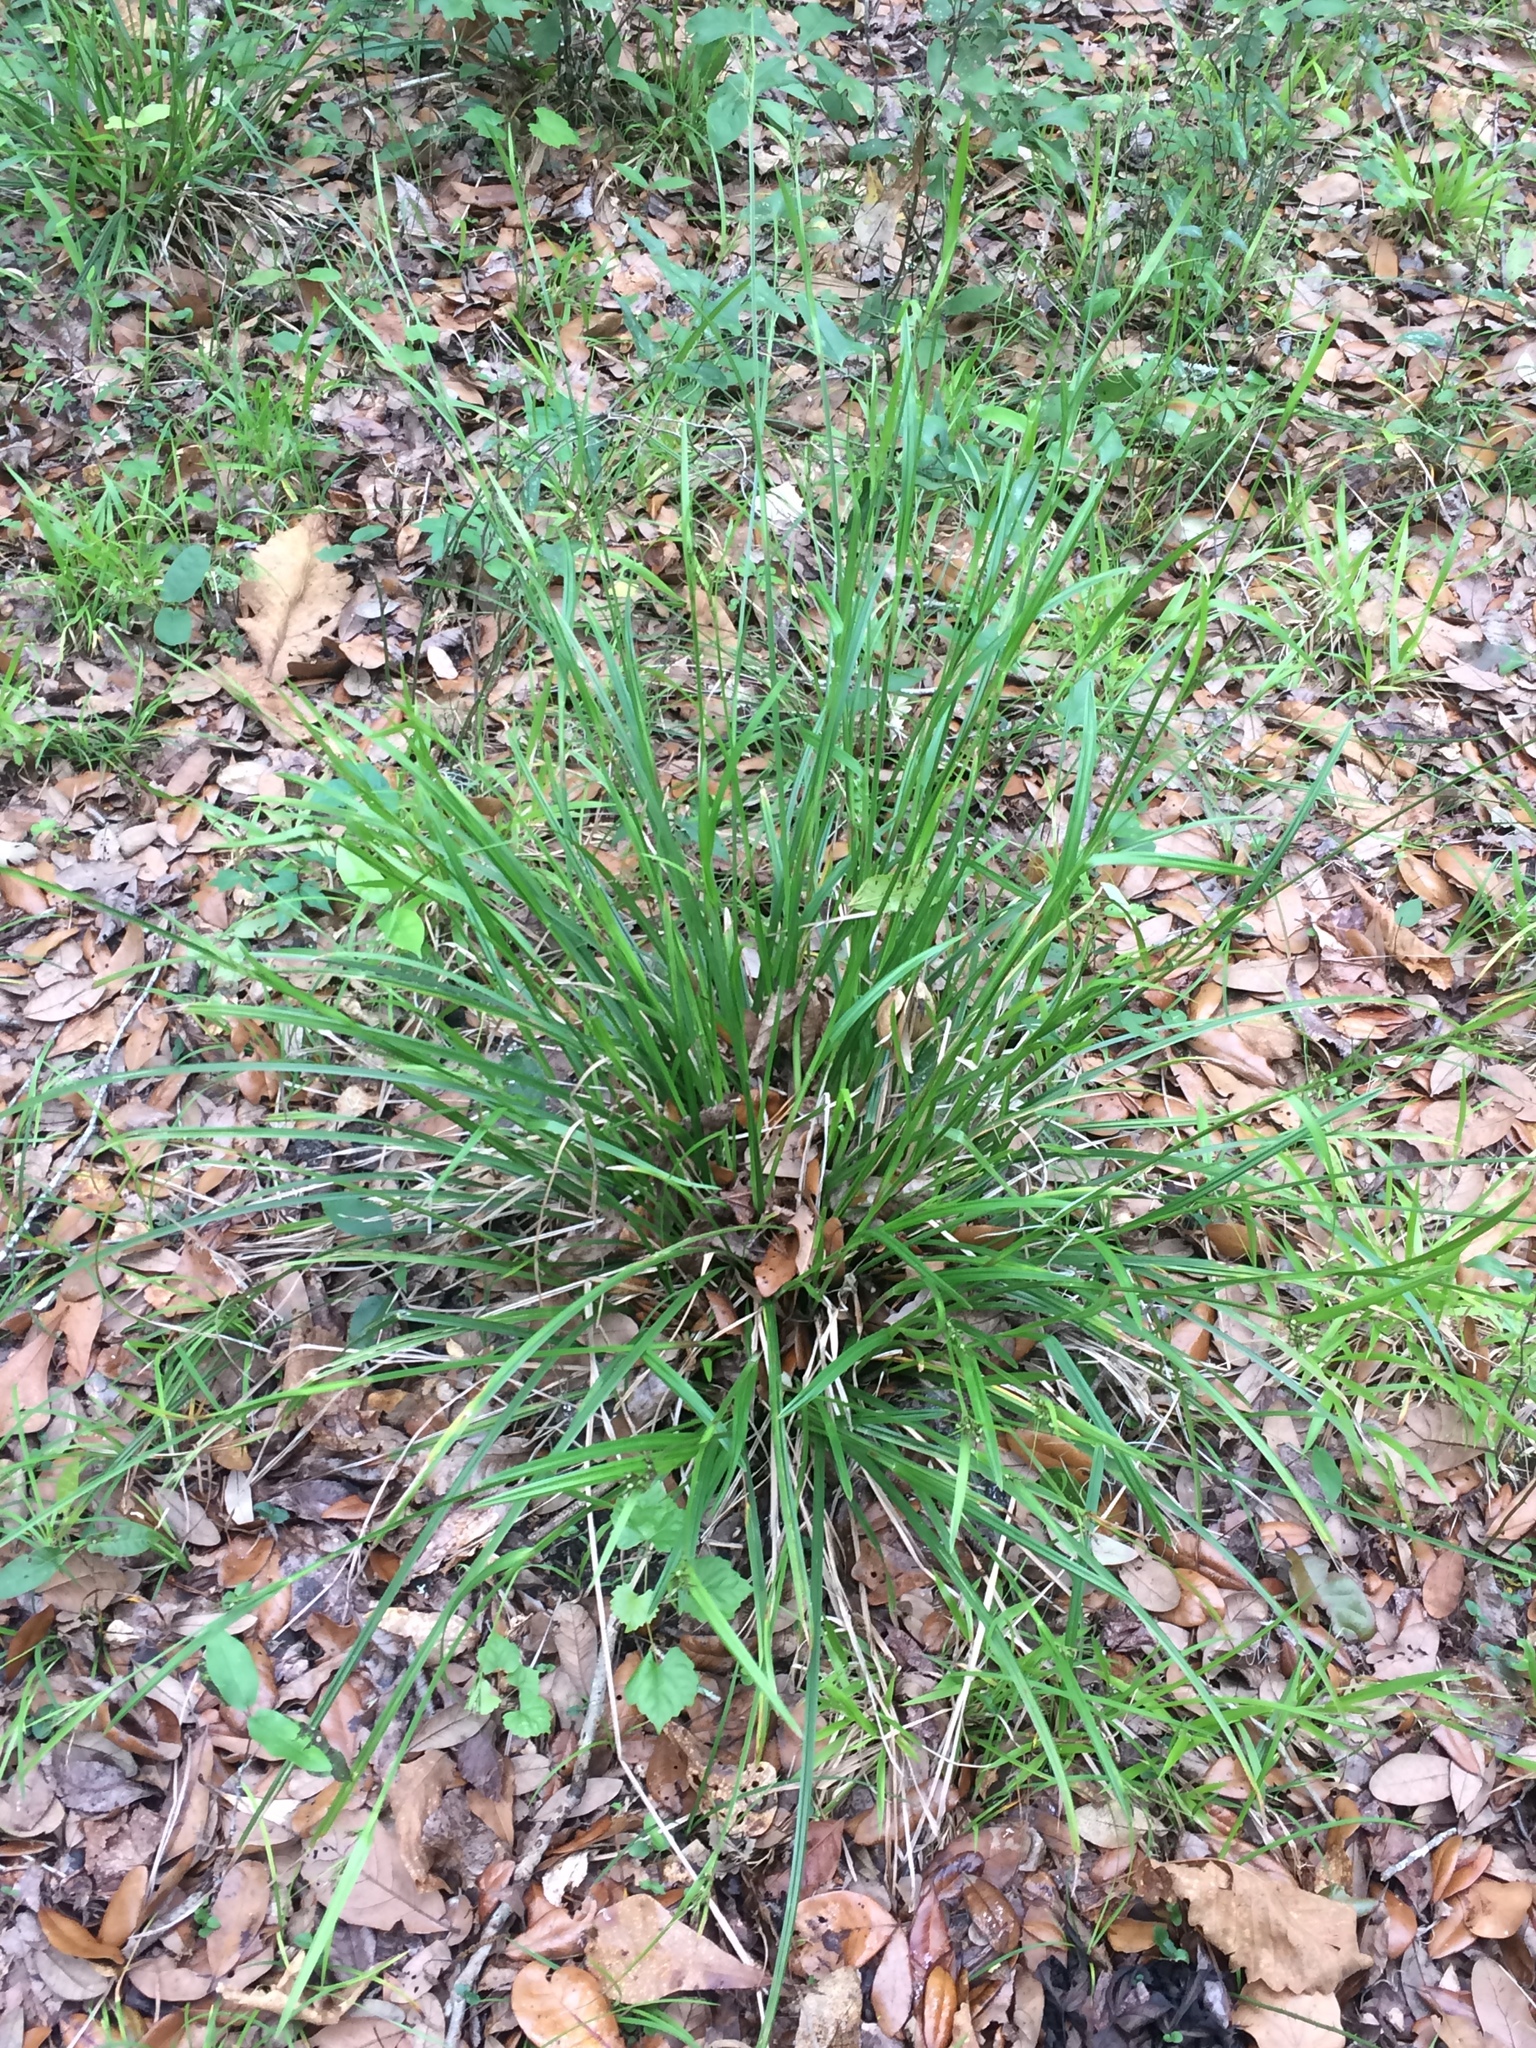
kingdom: Plantae
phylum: Tracheophyta
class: Liliopsida
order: Poales
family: Cyperaceae
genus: Scleria
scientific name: Scleria triglomerata
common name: Whip nutrush
